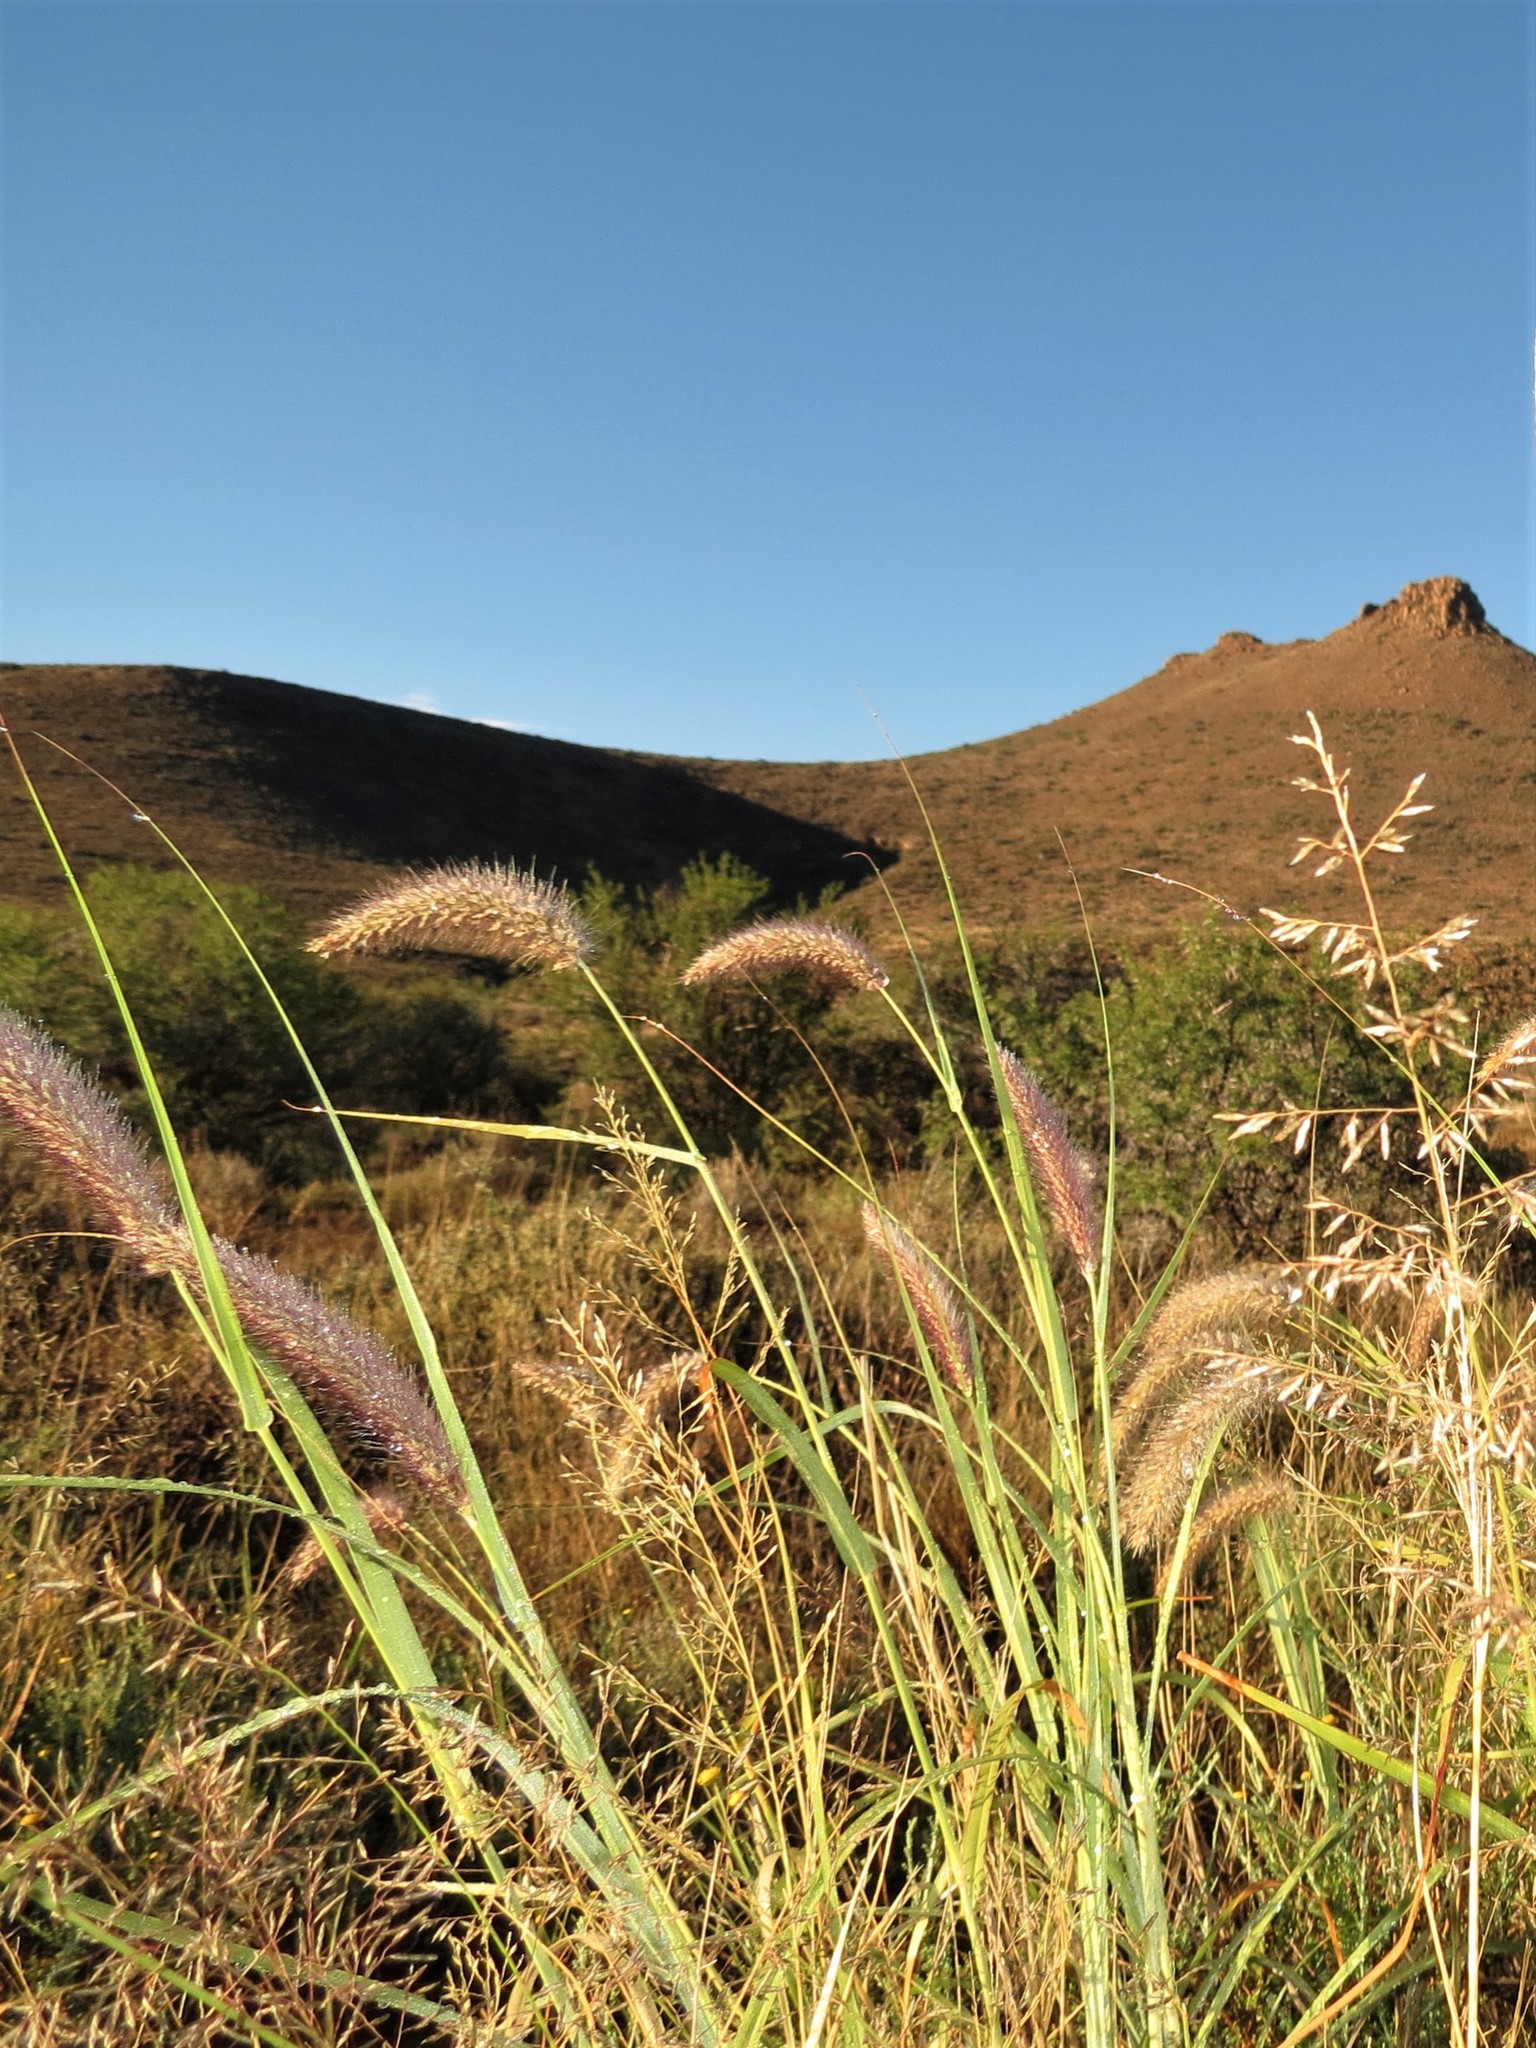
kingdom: Plantae
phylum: Tracheophyta
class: Liliopsida
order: Poales
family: Poaceae
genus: Cenchrus
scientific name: Cenchrus ciliaris
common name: Buffelgrass
